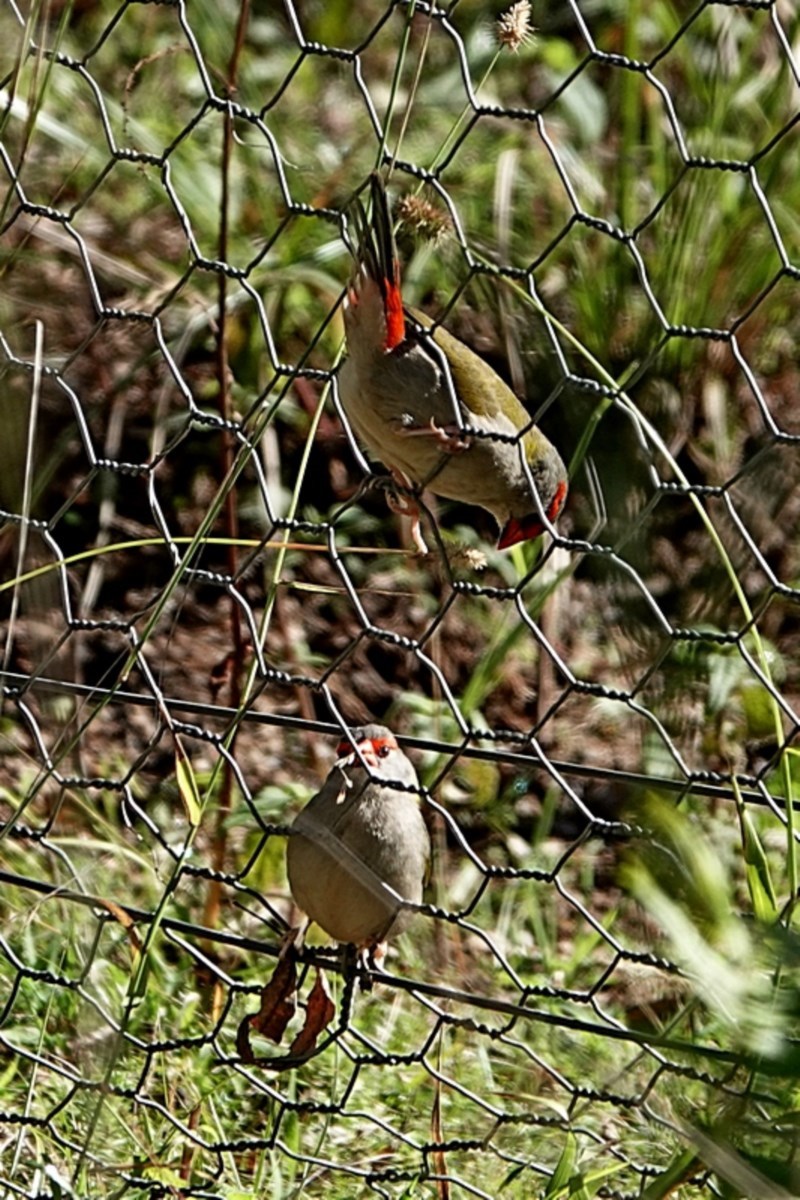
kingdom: Animalia
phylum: Chordata
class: Aves
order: Passeriformes
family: Estrildidae
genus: Neochmia
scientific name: Neochmia temporalis
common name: Red-browed finch
